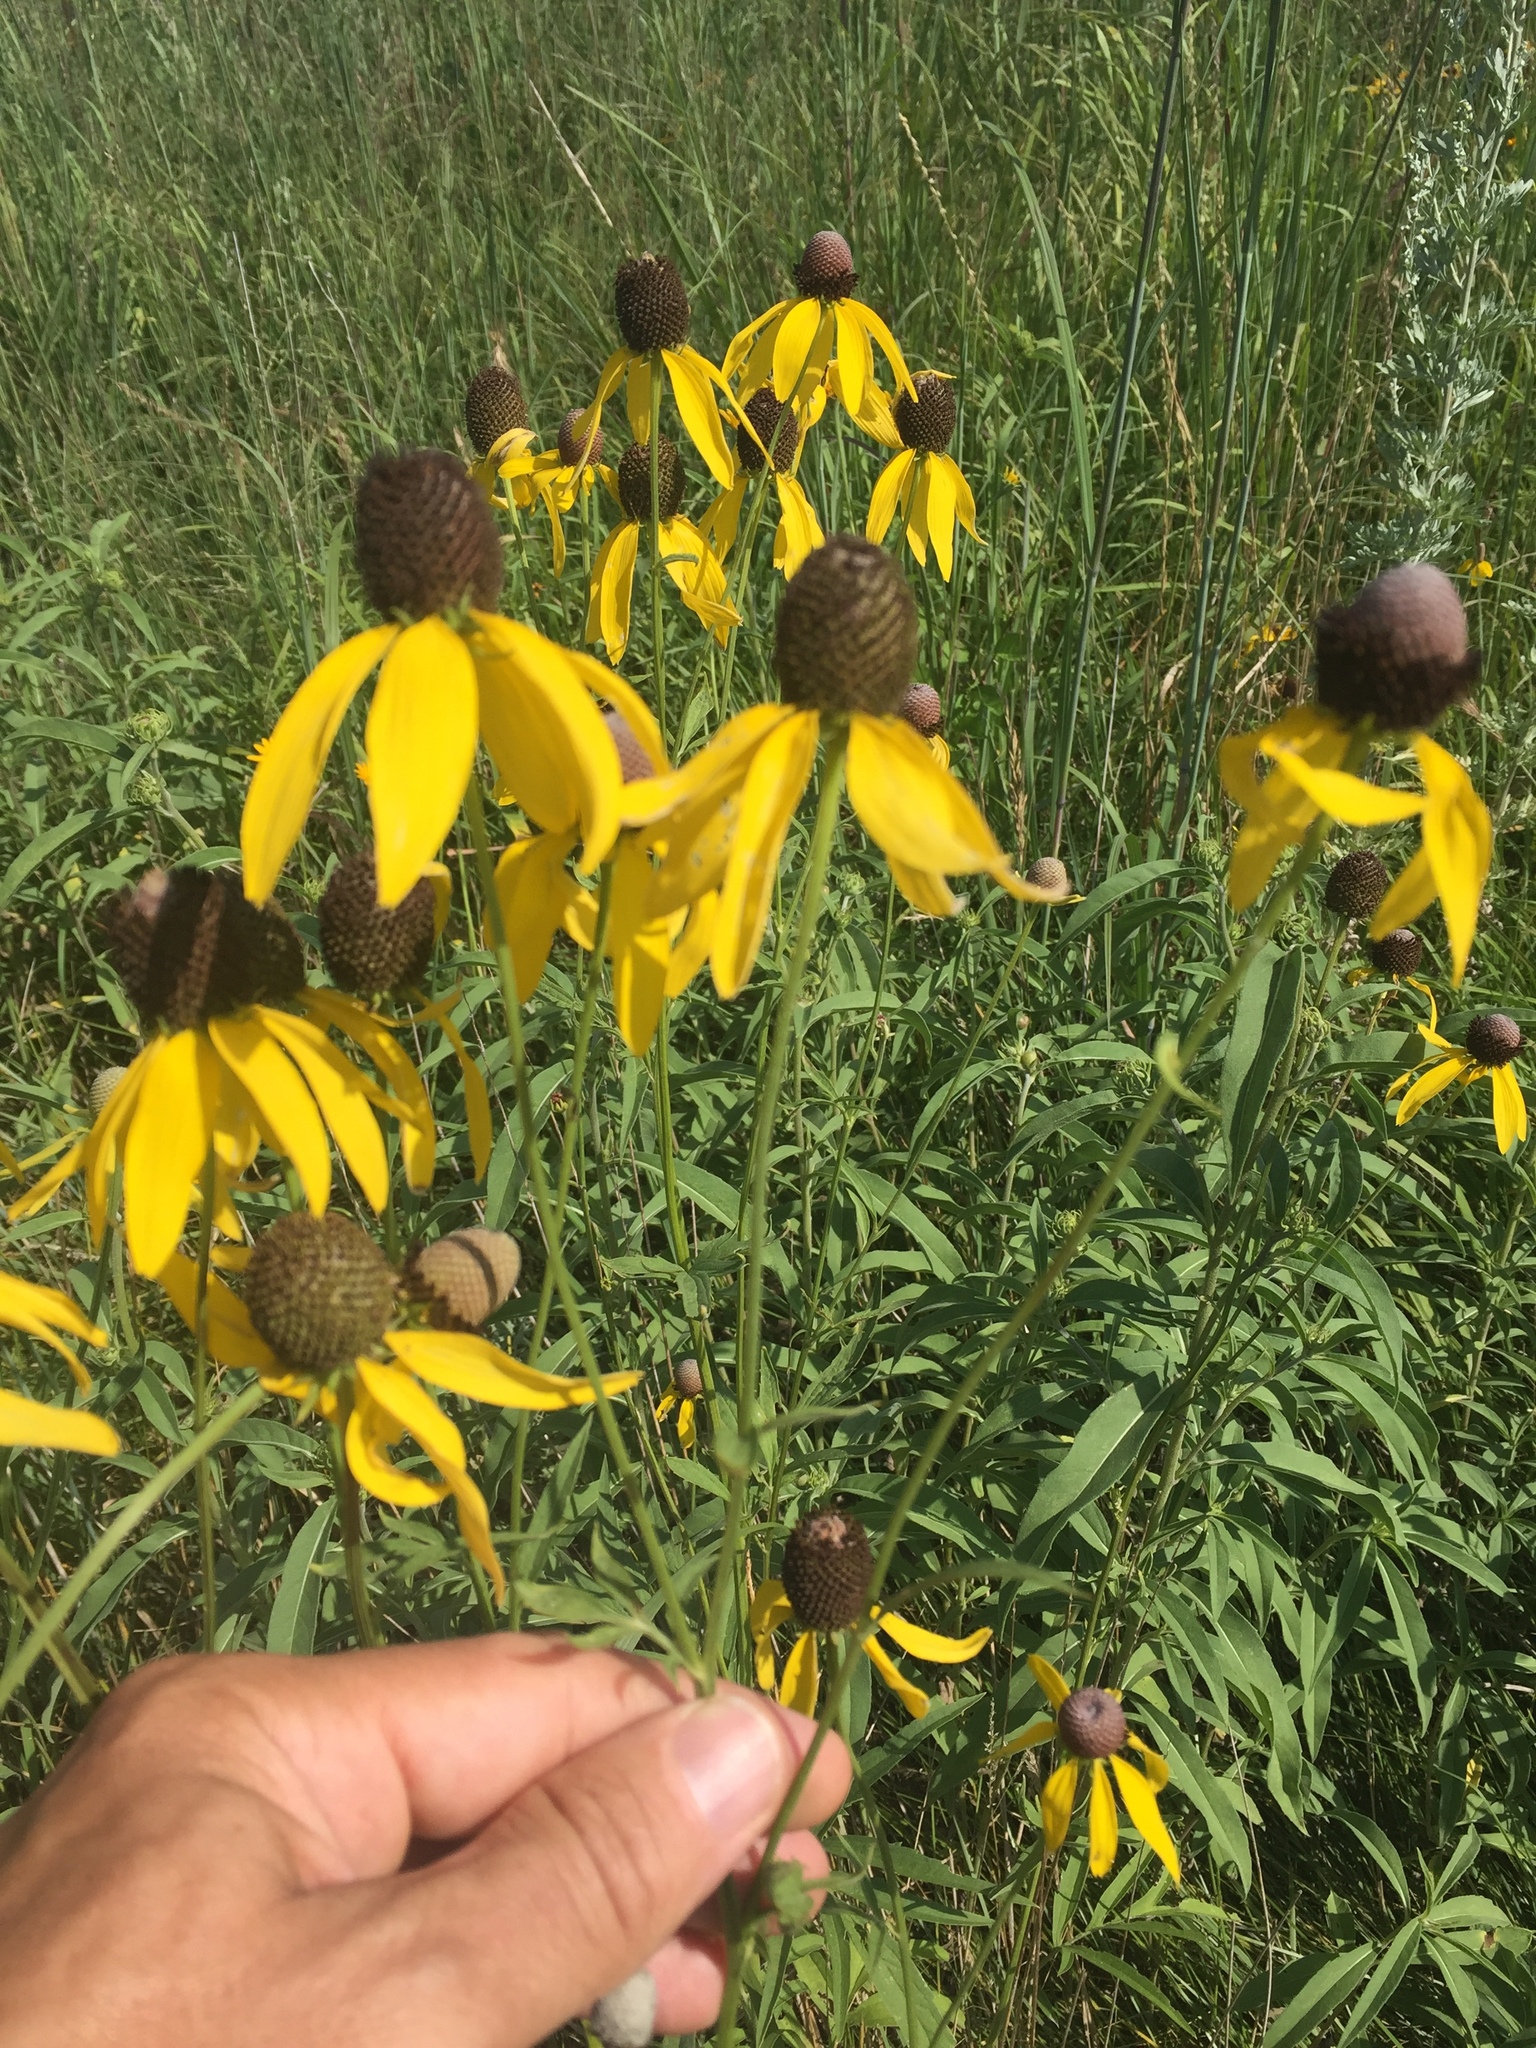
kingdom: Plantae
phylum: Tracheophyta
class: Magnoliopsida
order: Asterales
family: Asteraceae
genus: Ratibida
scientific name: Ratibida pinnata
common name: Drooping prairie-coneflower
